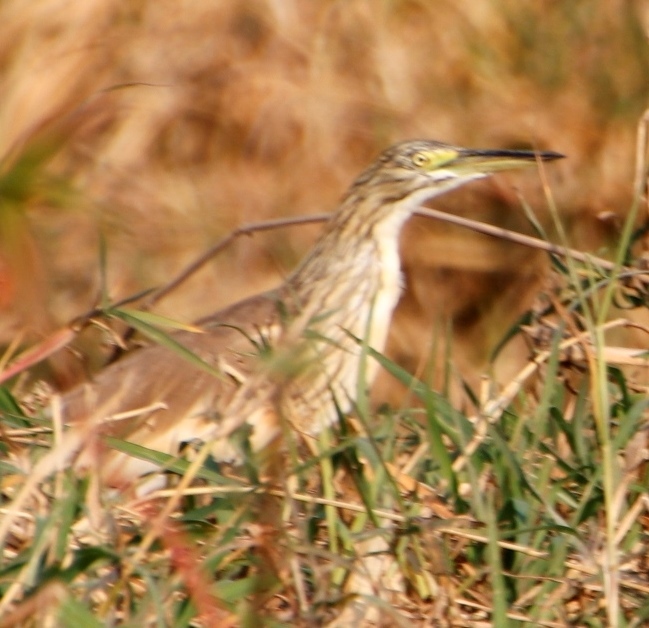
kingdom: Animalia
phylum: Chordata
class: Aves
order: Pelecaniformes
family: Ardeidae
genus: Ardeola
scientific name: Ardeola ralloides
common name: Squacco heron
